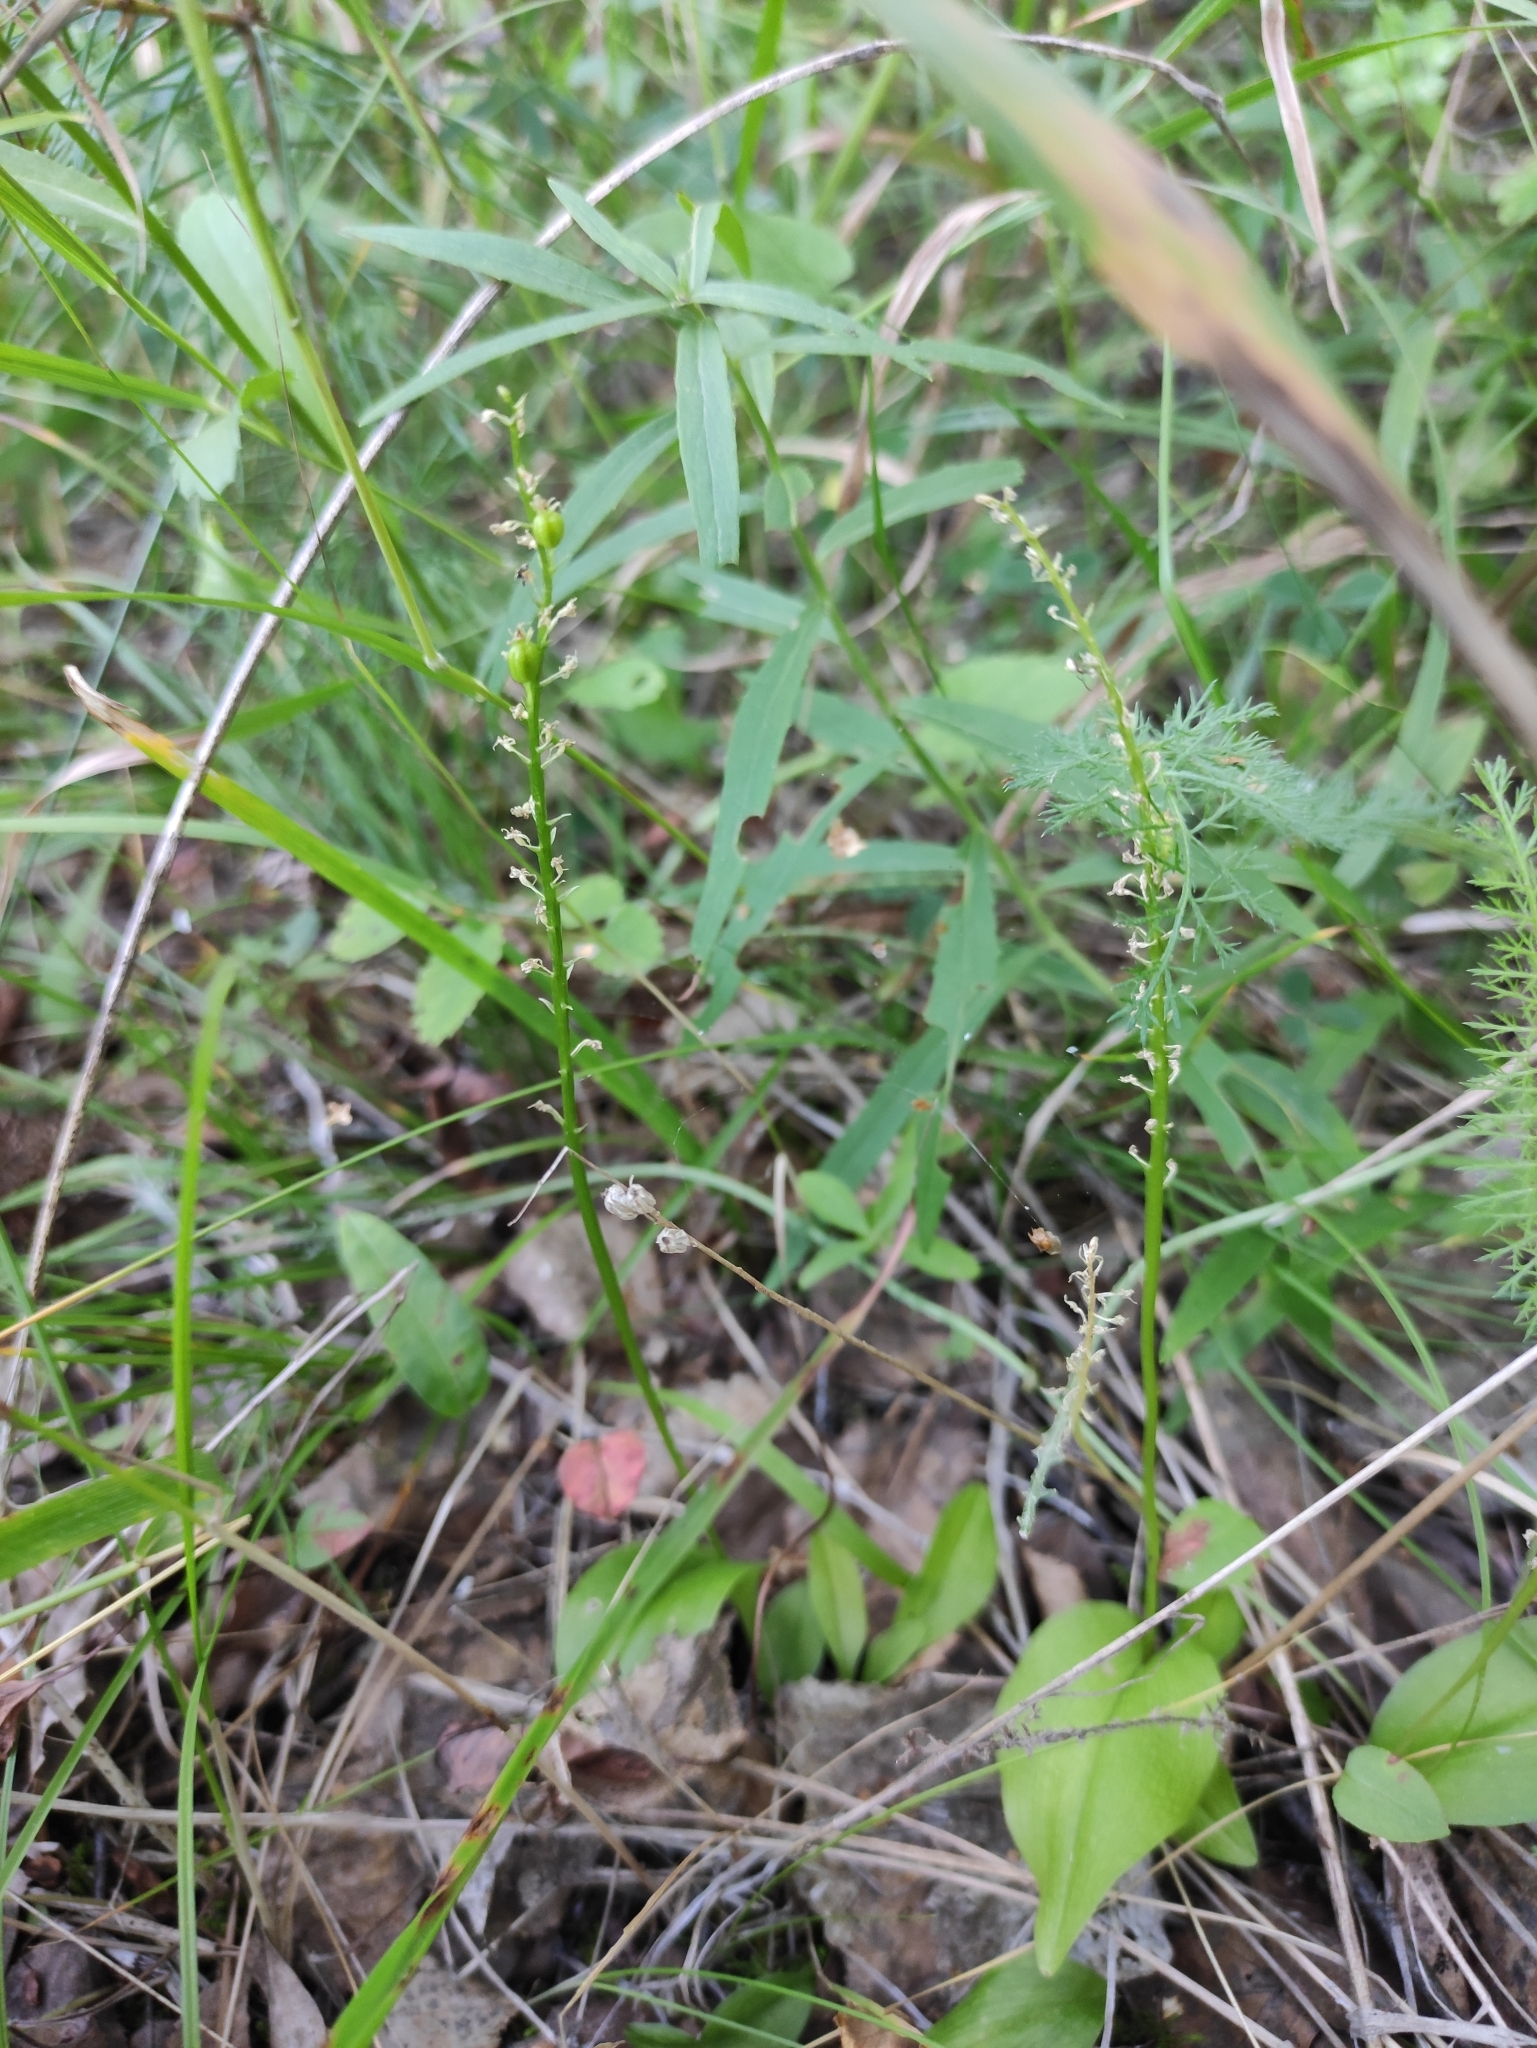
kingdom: Plantae
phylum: Tracheophyta
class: Liliopsida
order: Asparagales
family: Orchidaceae
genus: Malaxis
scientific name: Malaxis monophyllos
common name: White adder's-mouth
